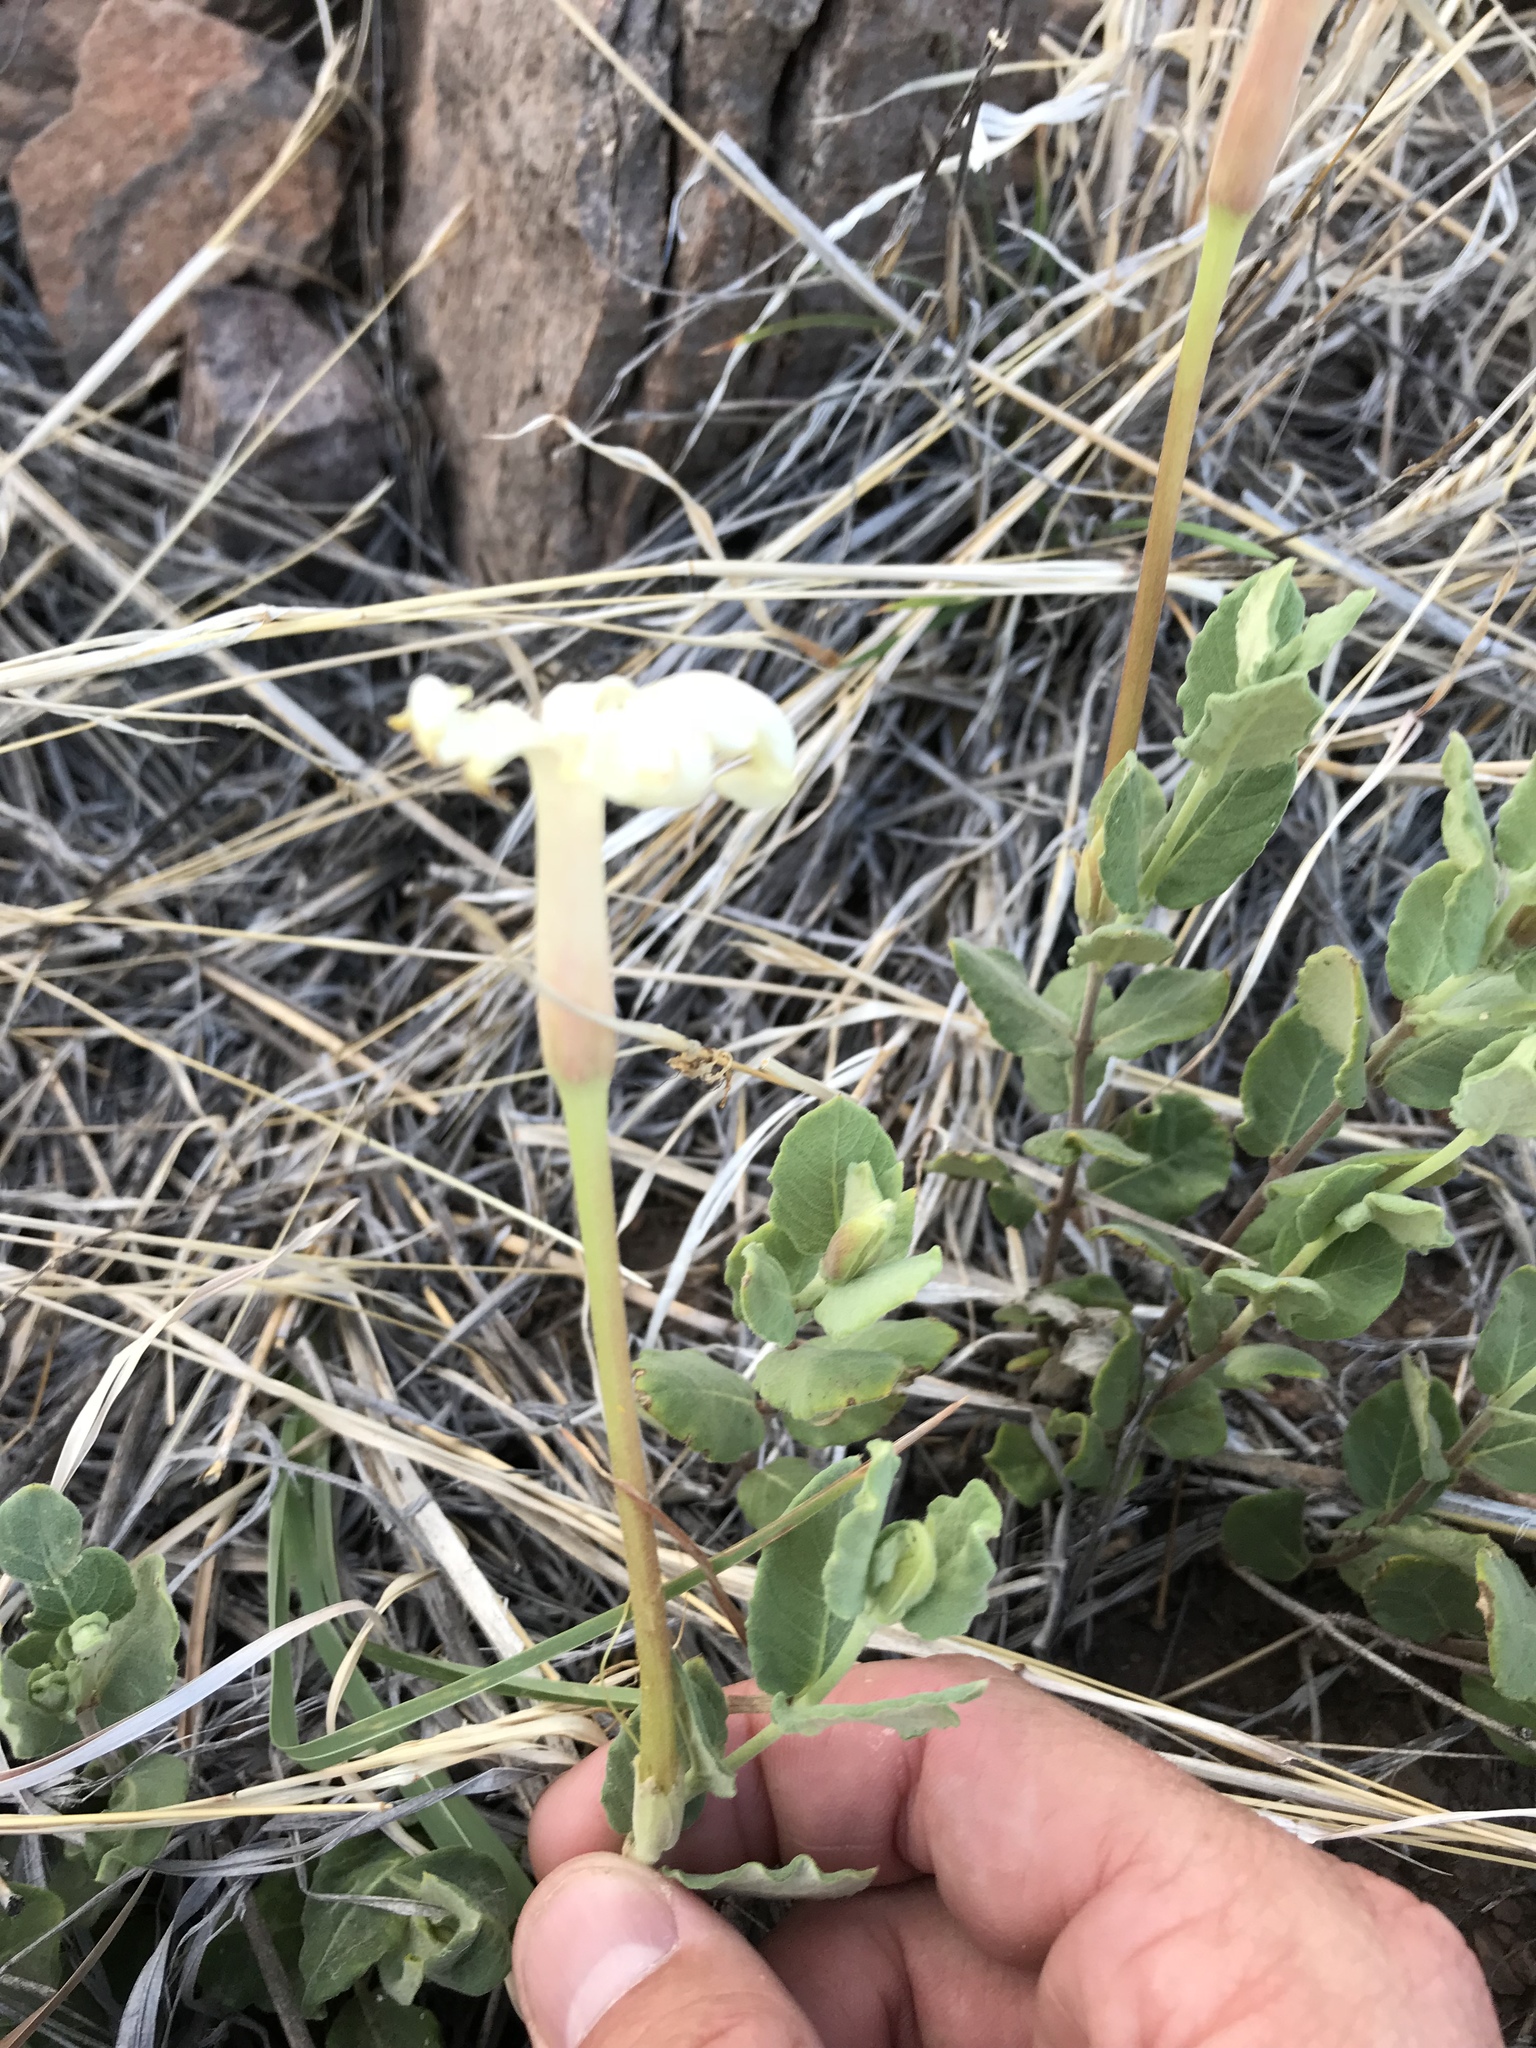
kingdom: Plantae
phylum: Tracheophyta
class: Magnoliopsida
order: Gentianales
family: Apocynaceae
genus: Mandevilla
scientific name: Mandevilla macrosiphon
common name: Plateau rocktrumpet
